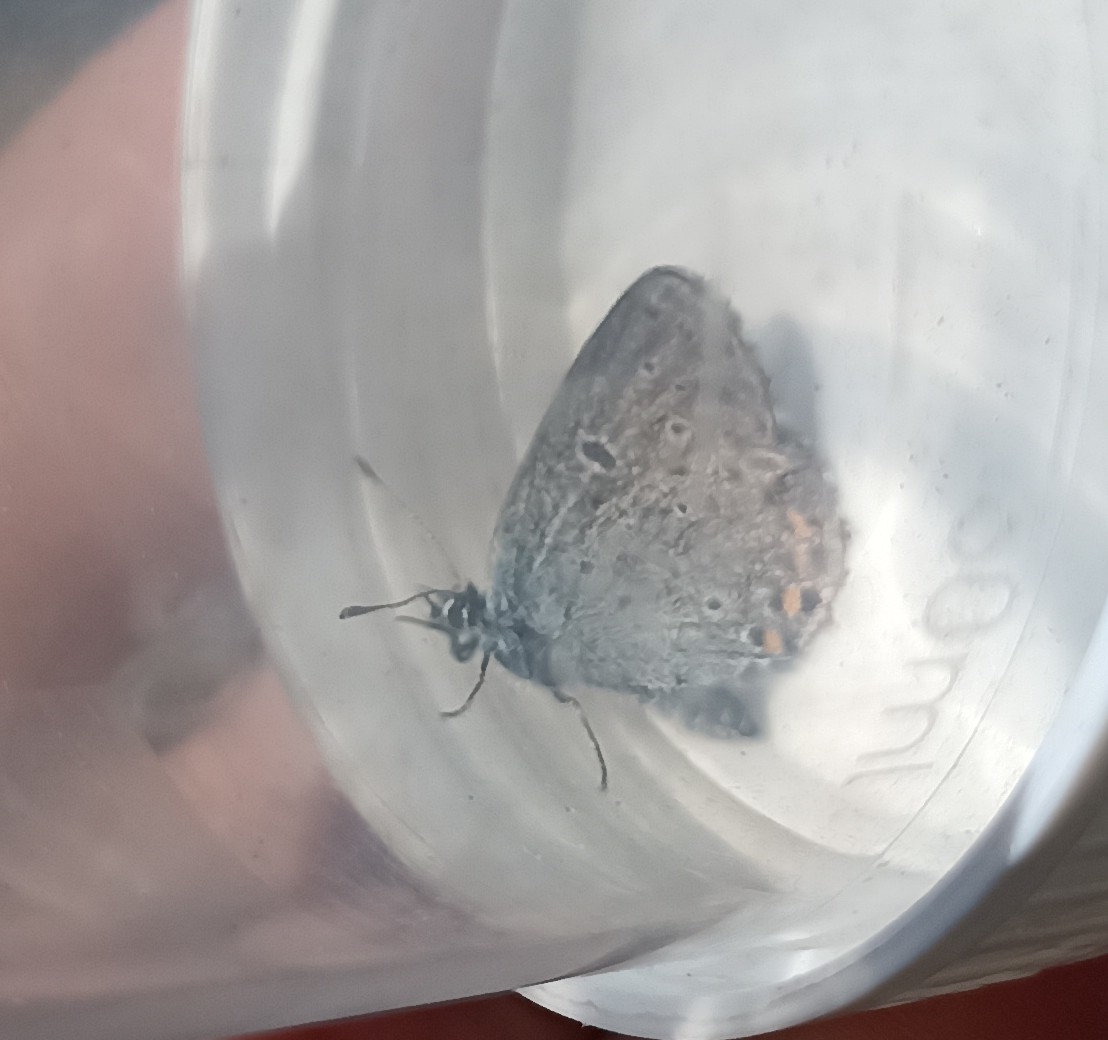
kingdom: Animalia
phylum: Arthropoda
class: Insecta
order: Lepidoptera
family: Lycaenidae
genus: Pseudophilotes
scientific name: Pseudophilotes baton
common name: Baton blue
